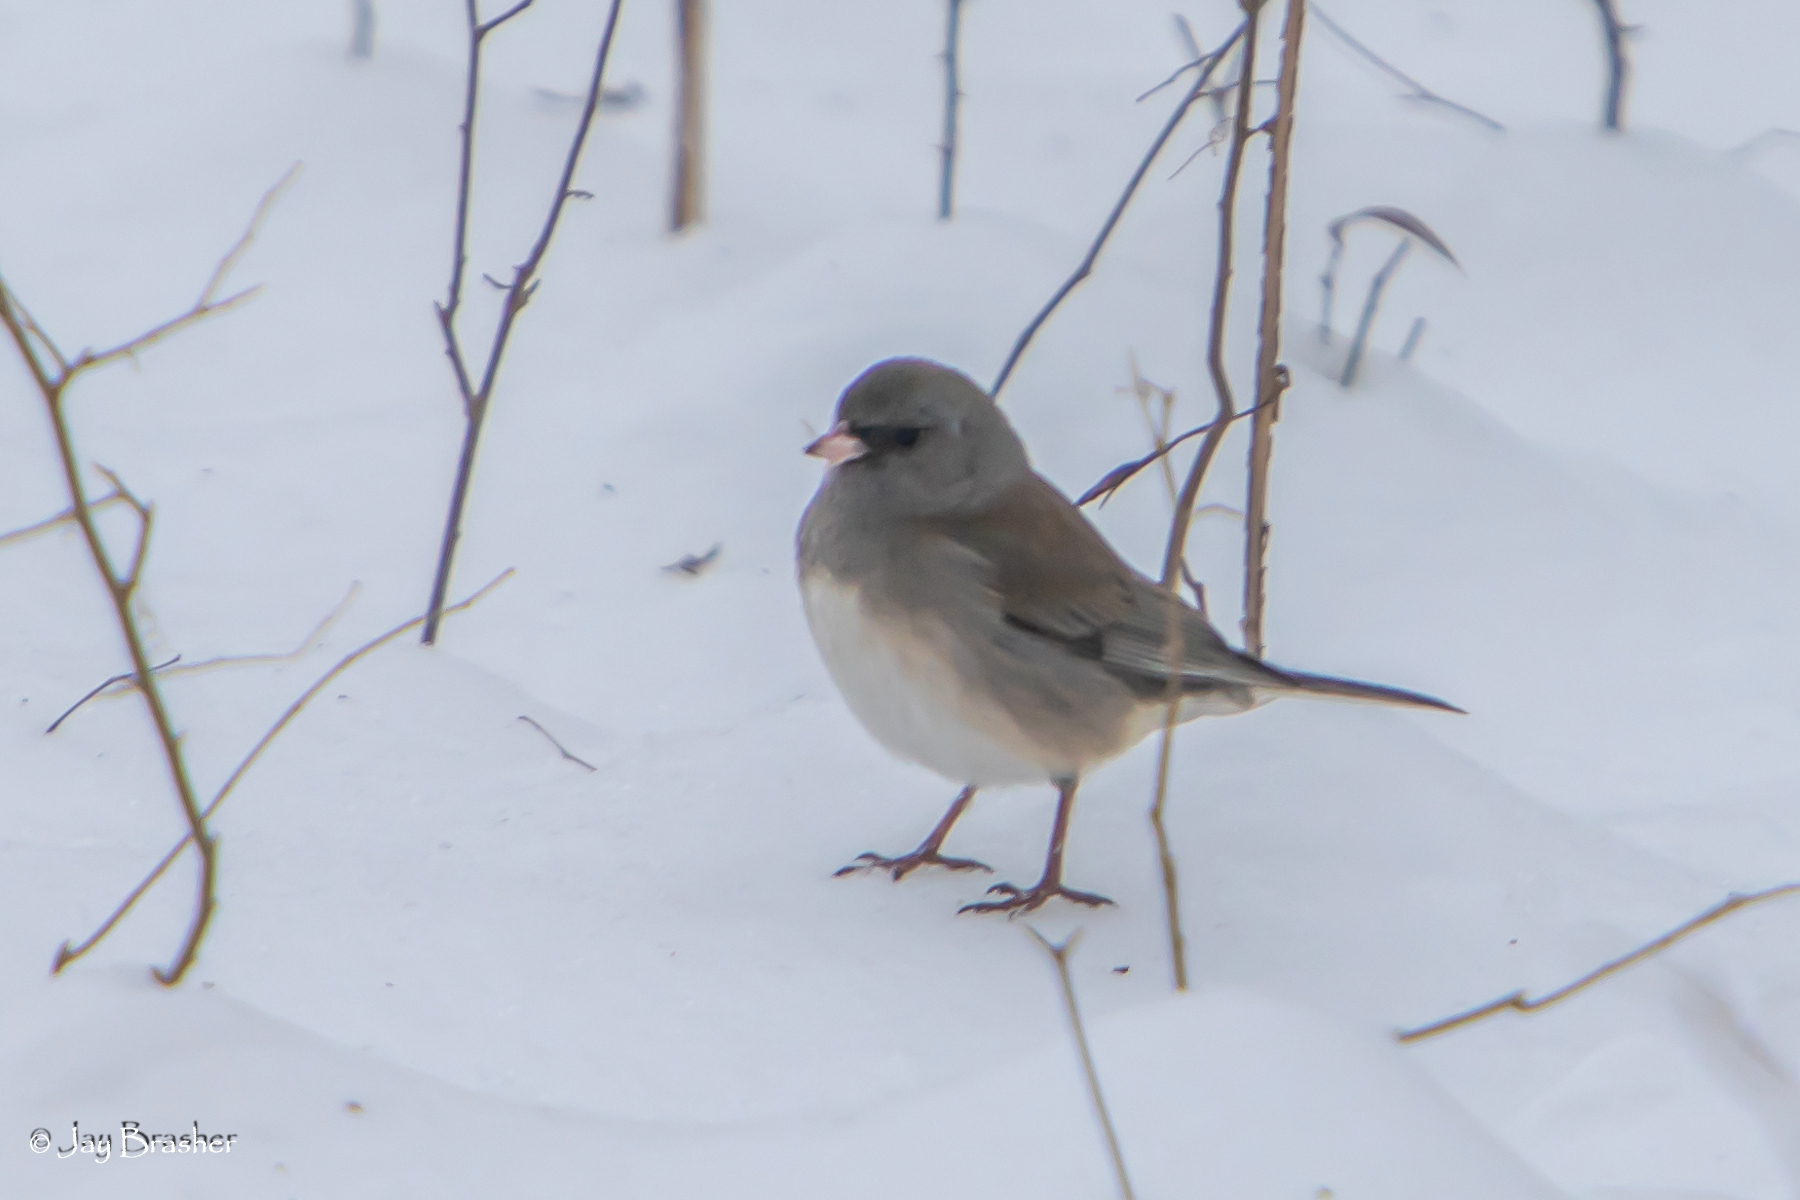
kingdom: Animalia
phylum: Chordata
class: Aves
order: Passeriformes
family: Passerellidae
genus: Junco
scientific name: Junco hyemalis
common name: Dark-eyed junco
